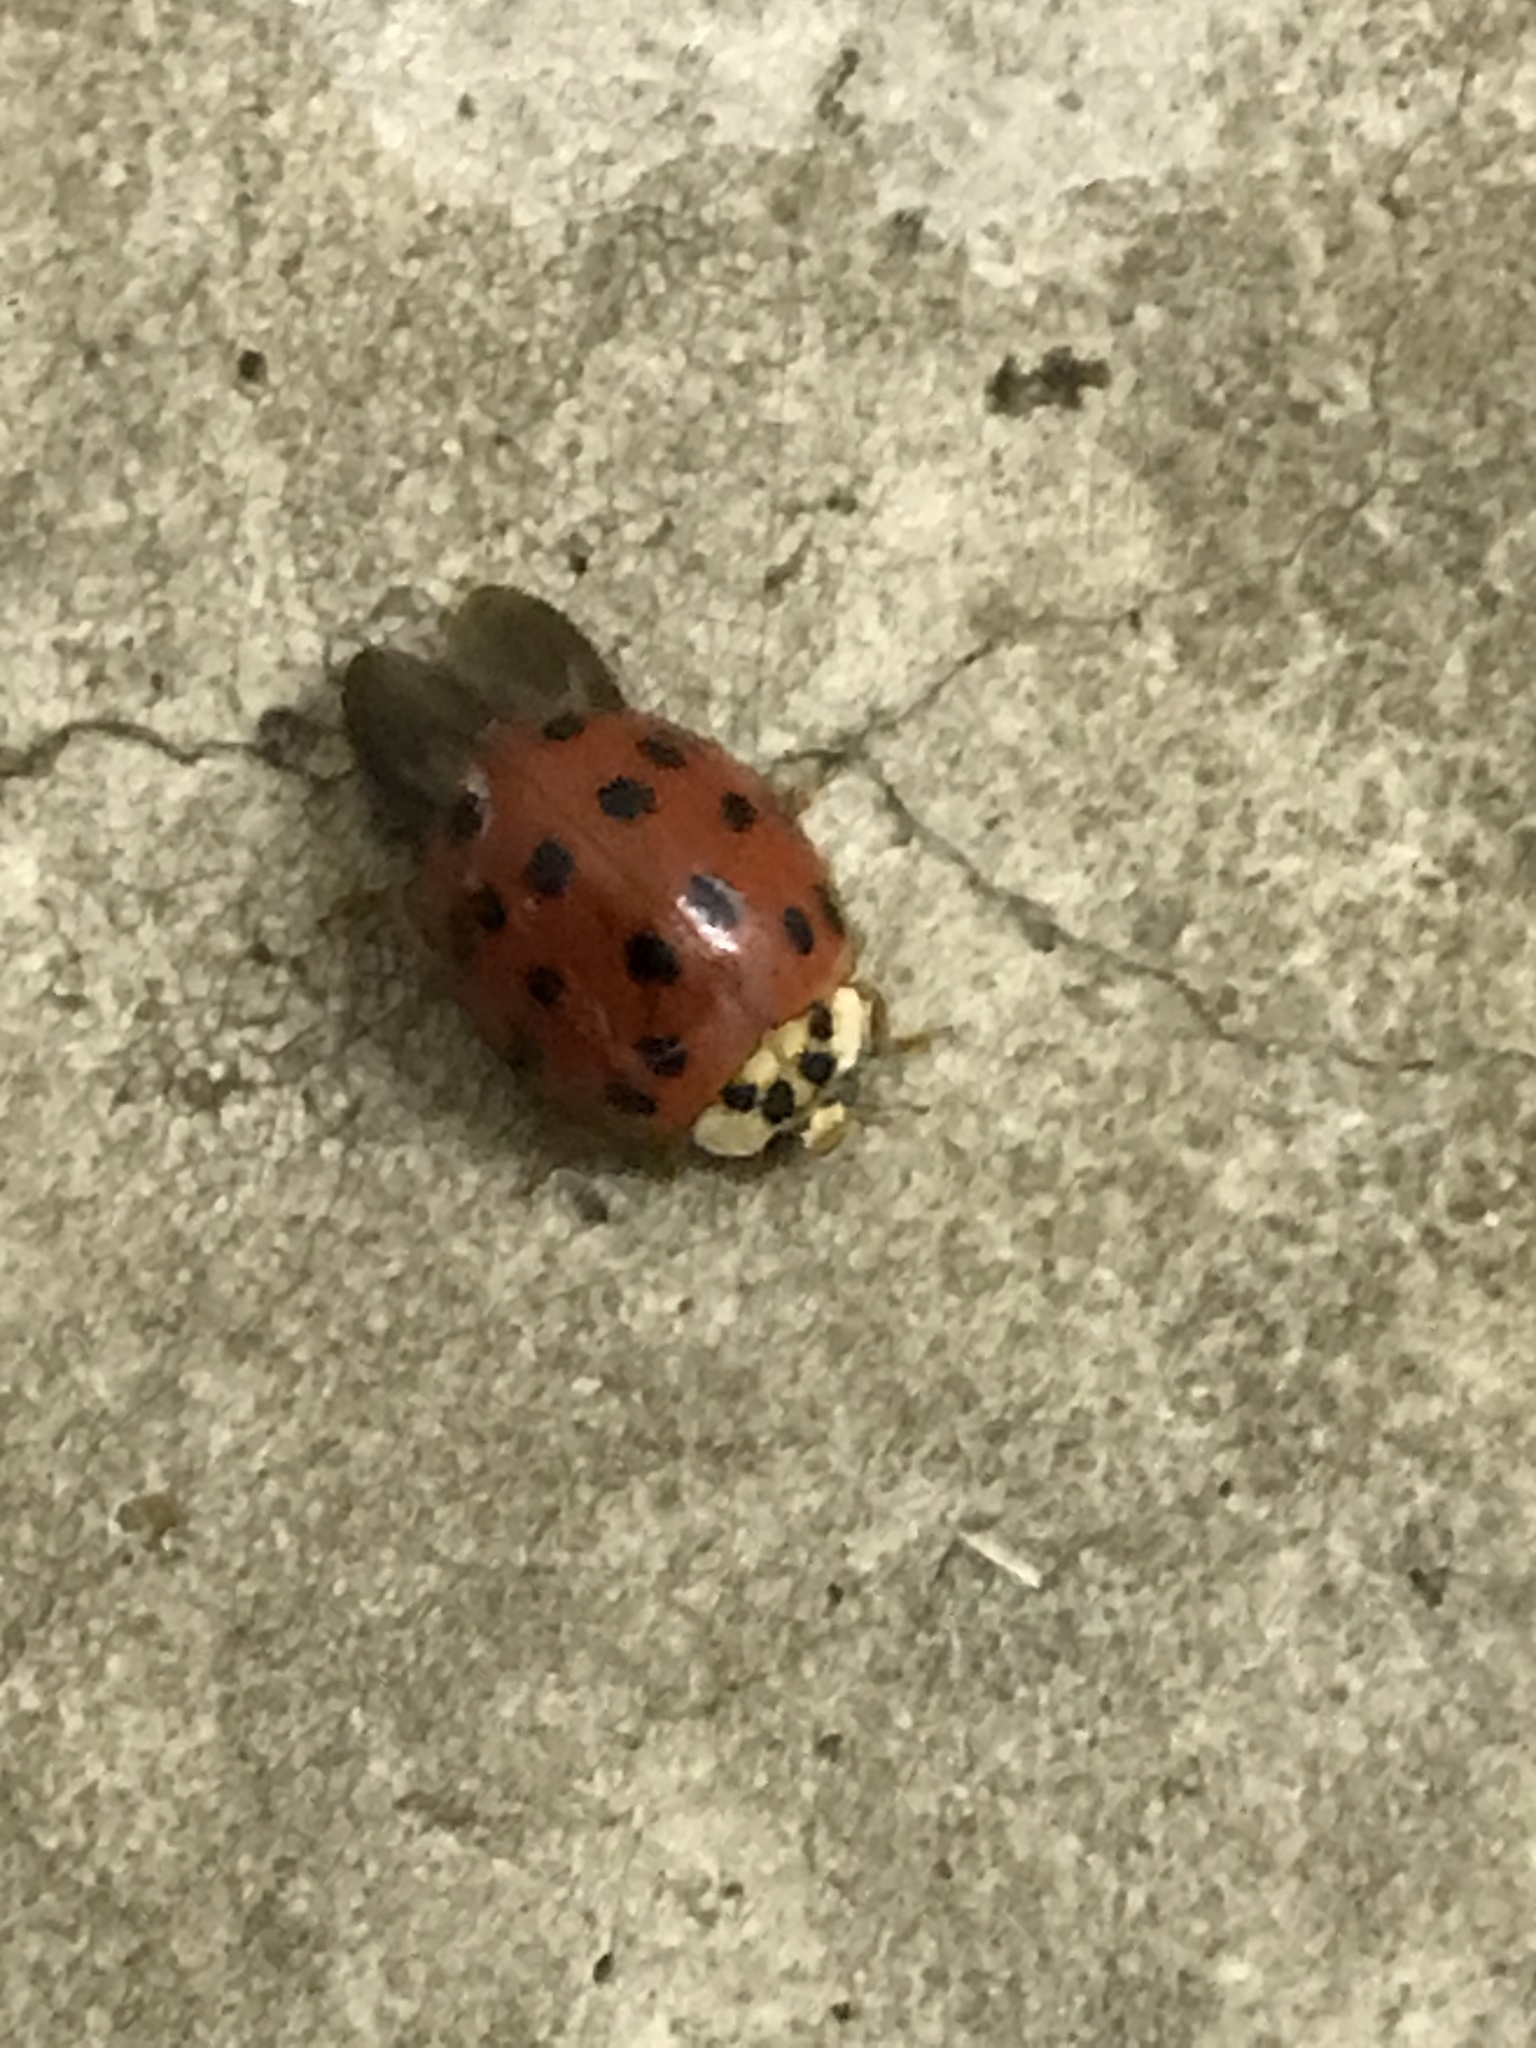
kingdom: Animalia
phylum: Arthropoda
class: Insecta
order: Coleoptera
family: Coccinellidae
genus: Harmonia
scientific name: Harmonia axyridis
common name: Harlequin ladybird
